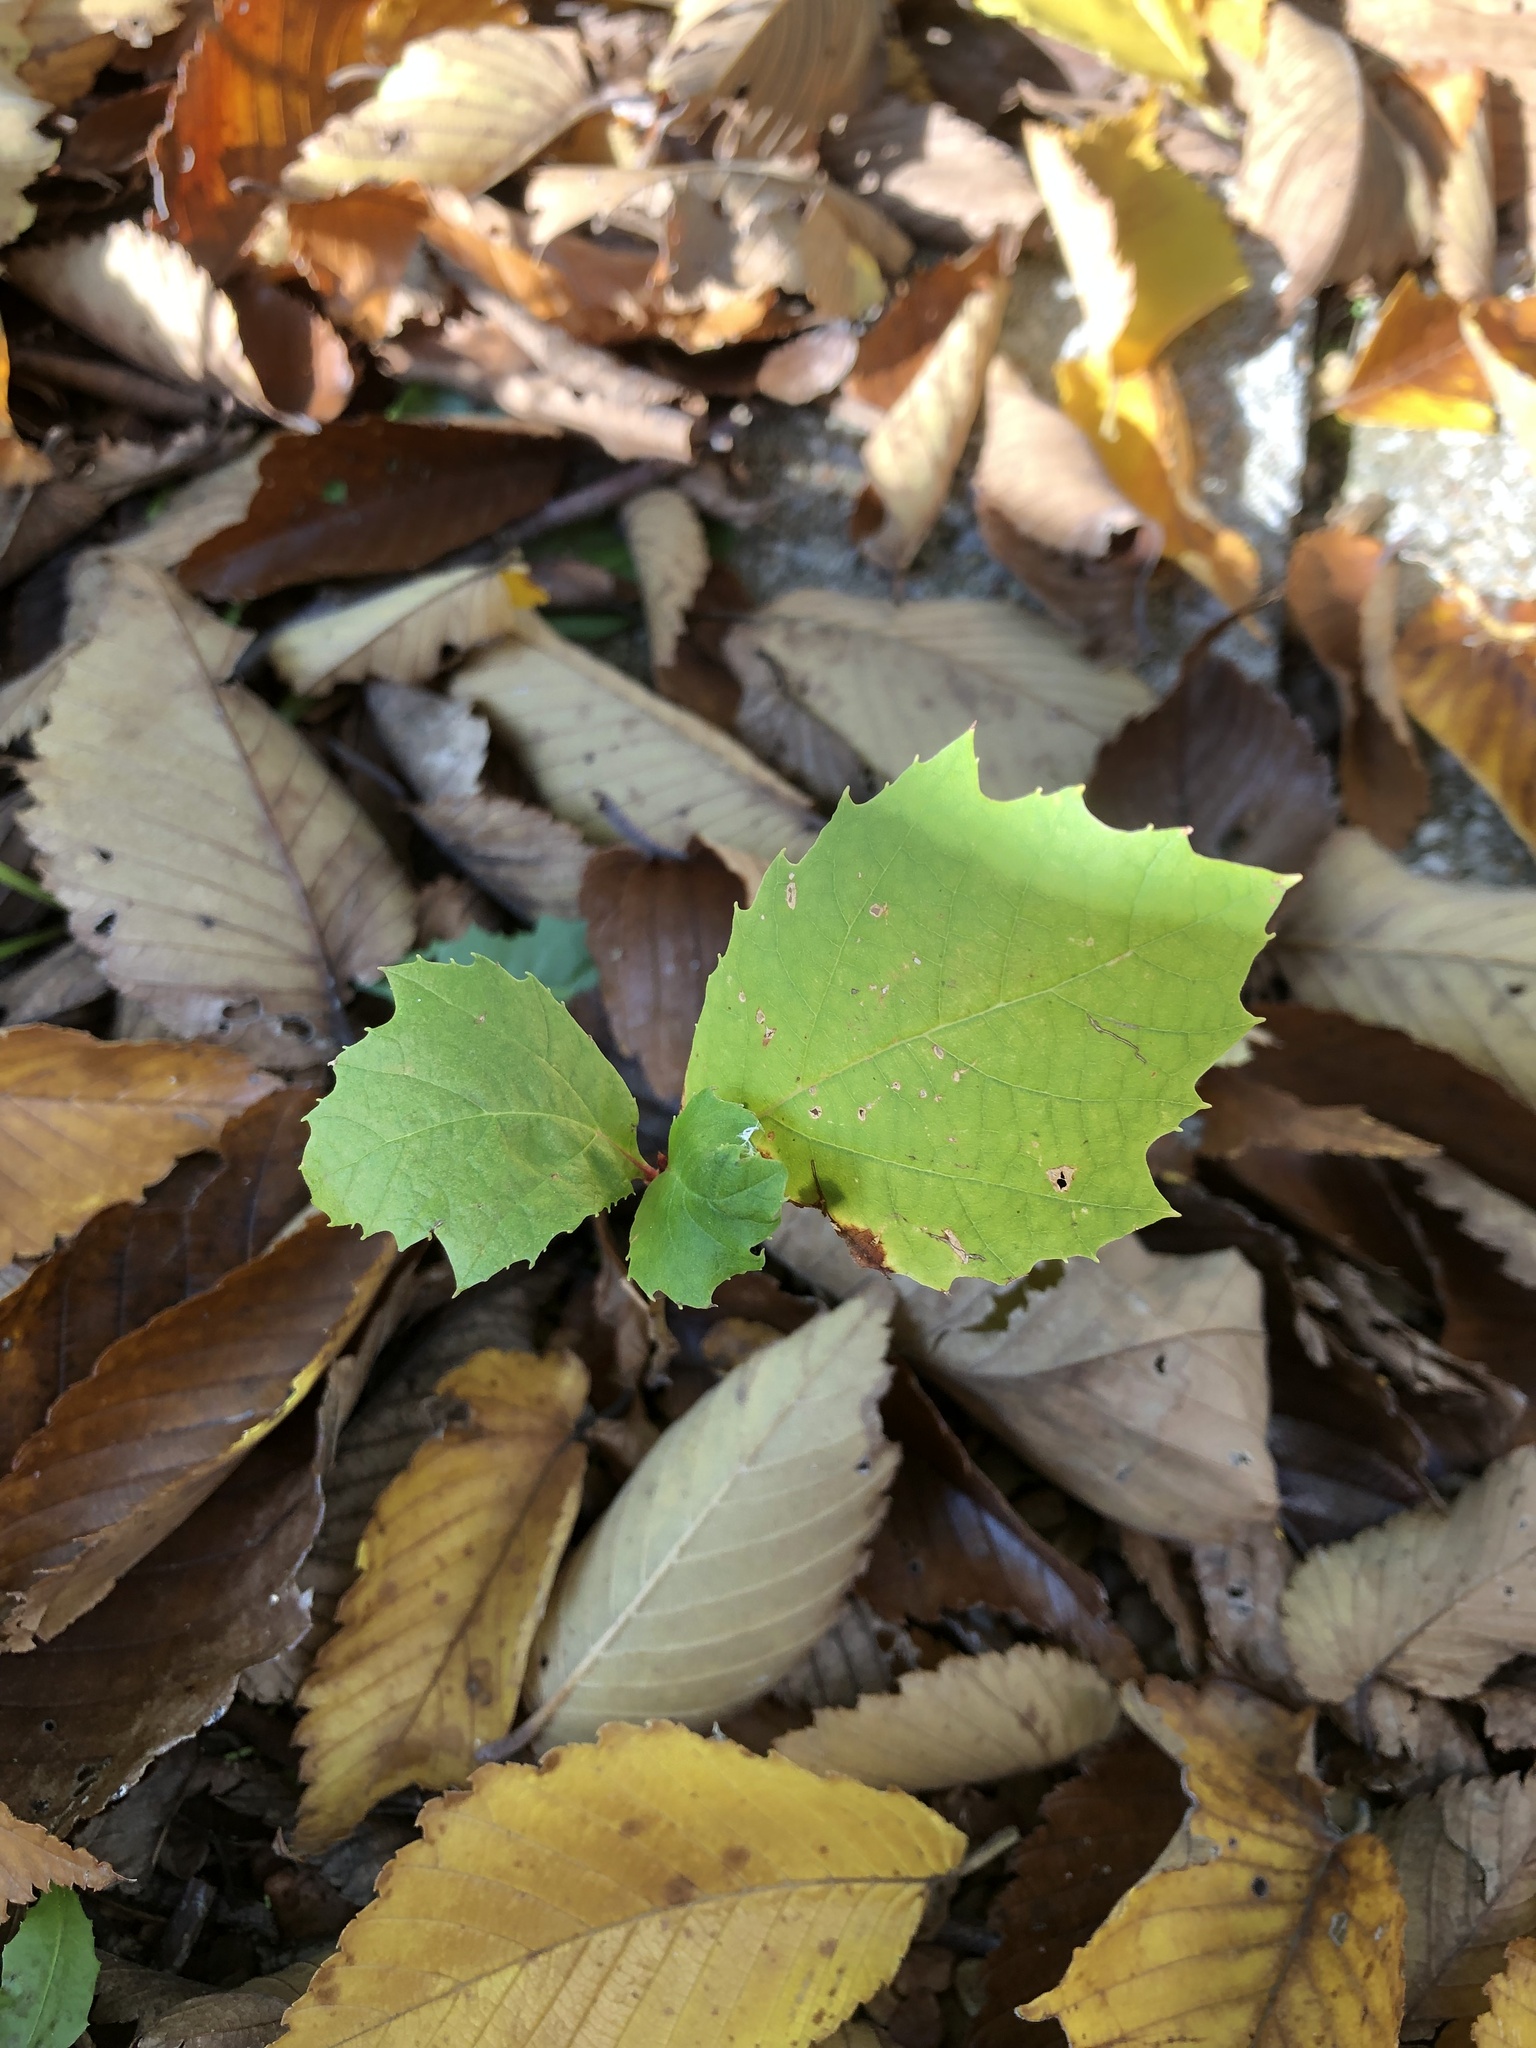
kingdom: Plantae
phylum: Tracheophyta
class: Magnoliopsida
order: Proteales
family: Platanaceae
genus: Platanus
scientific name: Platanus occidentalis
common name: American sycamore
